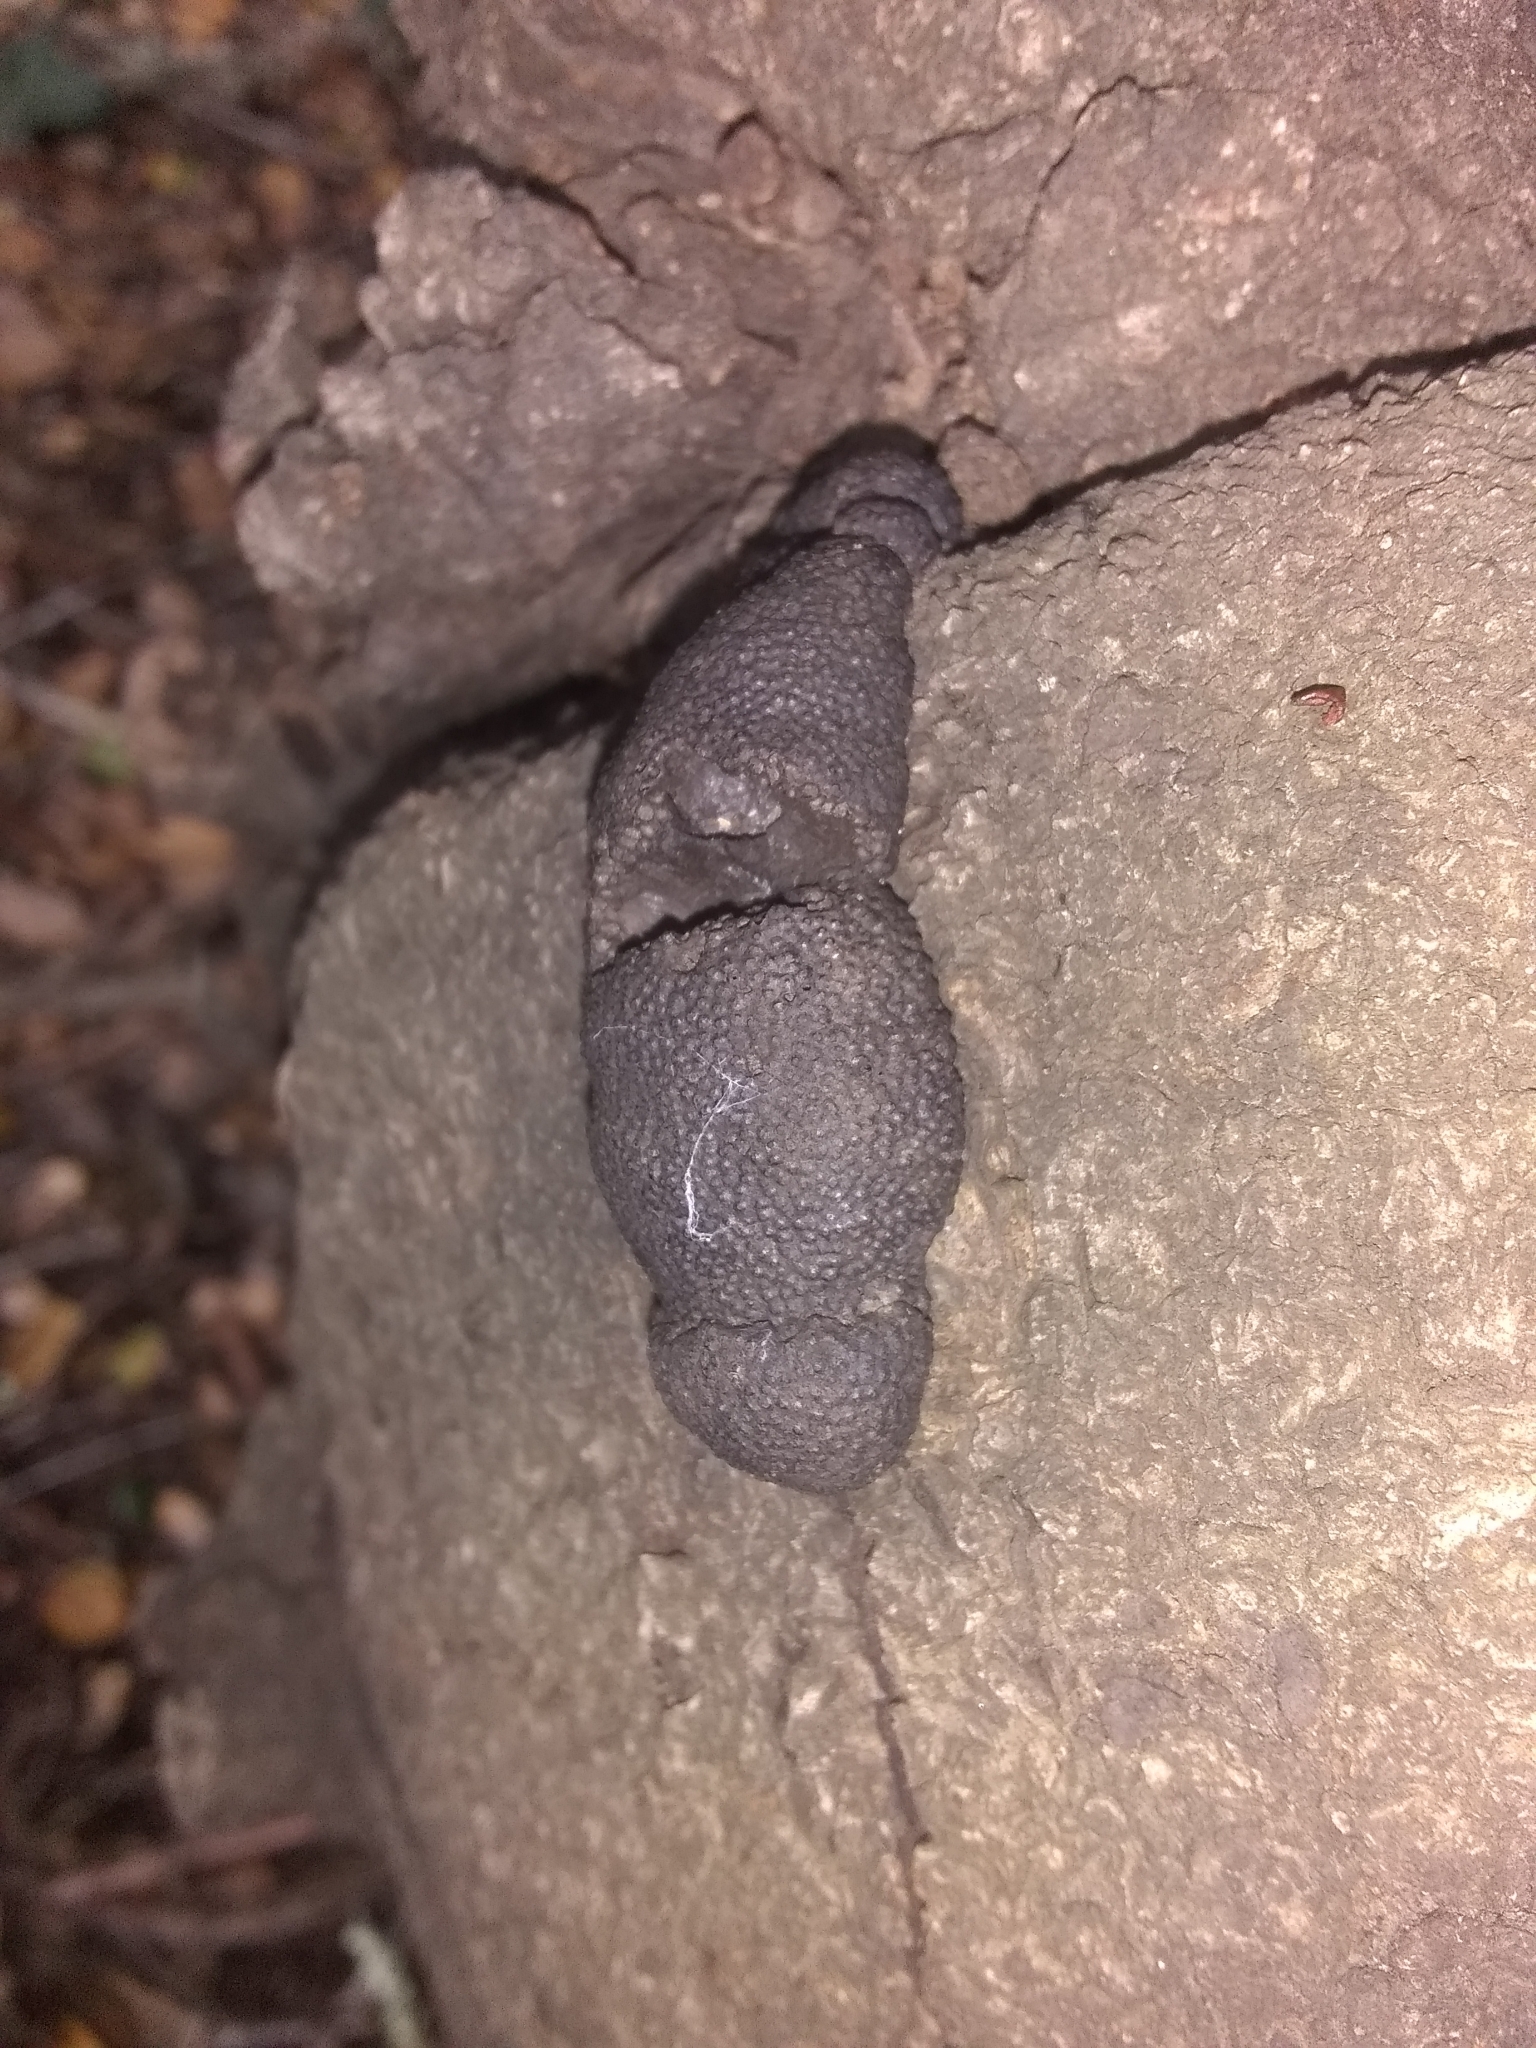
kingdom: Fungi
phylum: Ascomycota
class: Sordariomycetes
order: Xylariales
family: Hypoxylaceae
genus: Annulohypoxylon
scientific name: Annulohypoxylon thouarsianum
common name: Cramp balls
